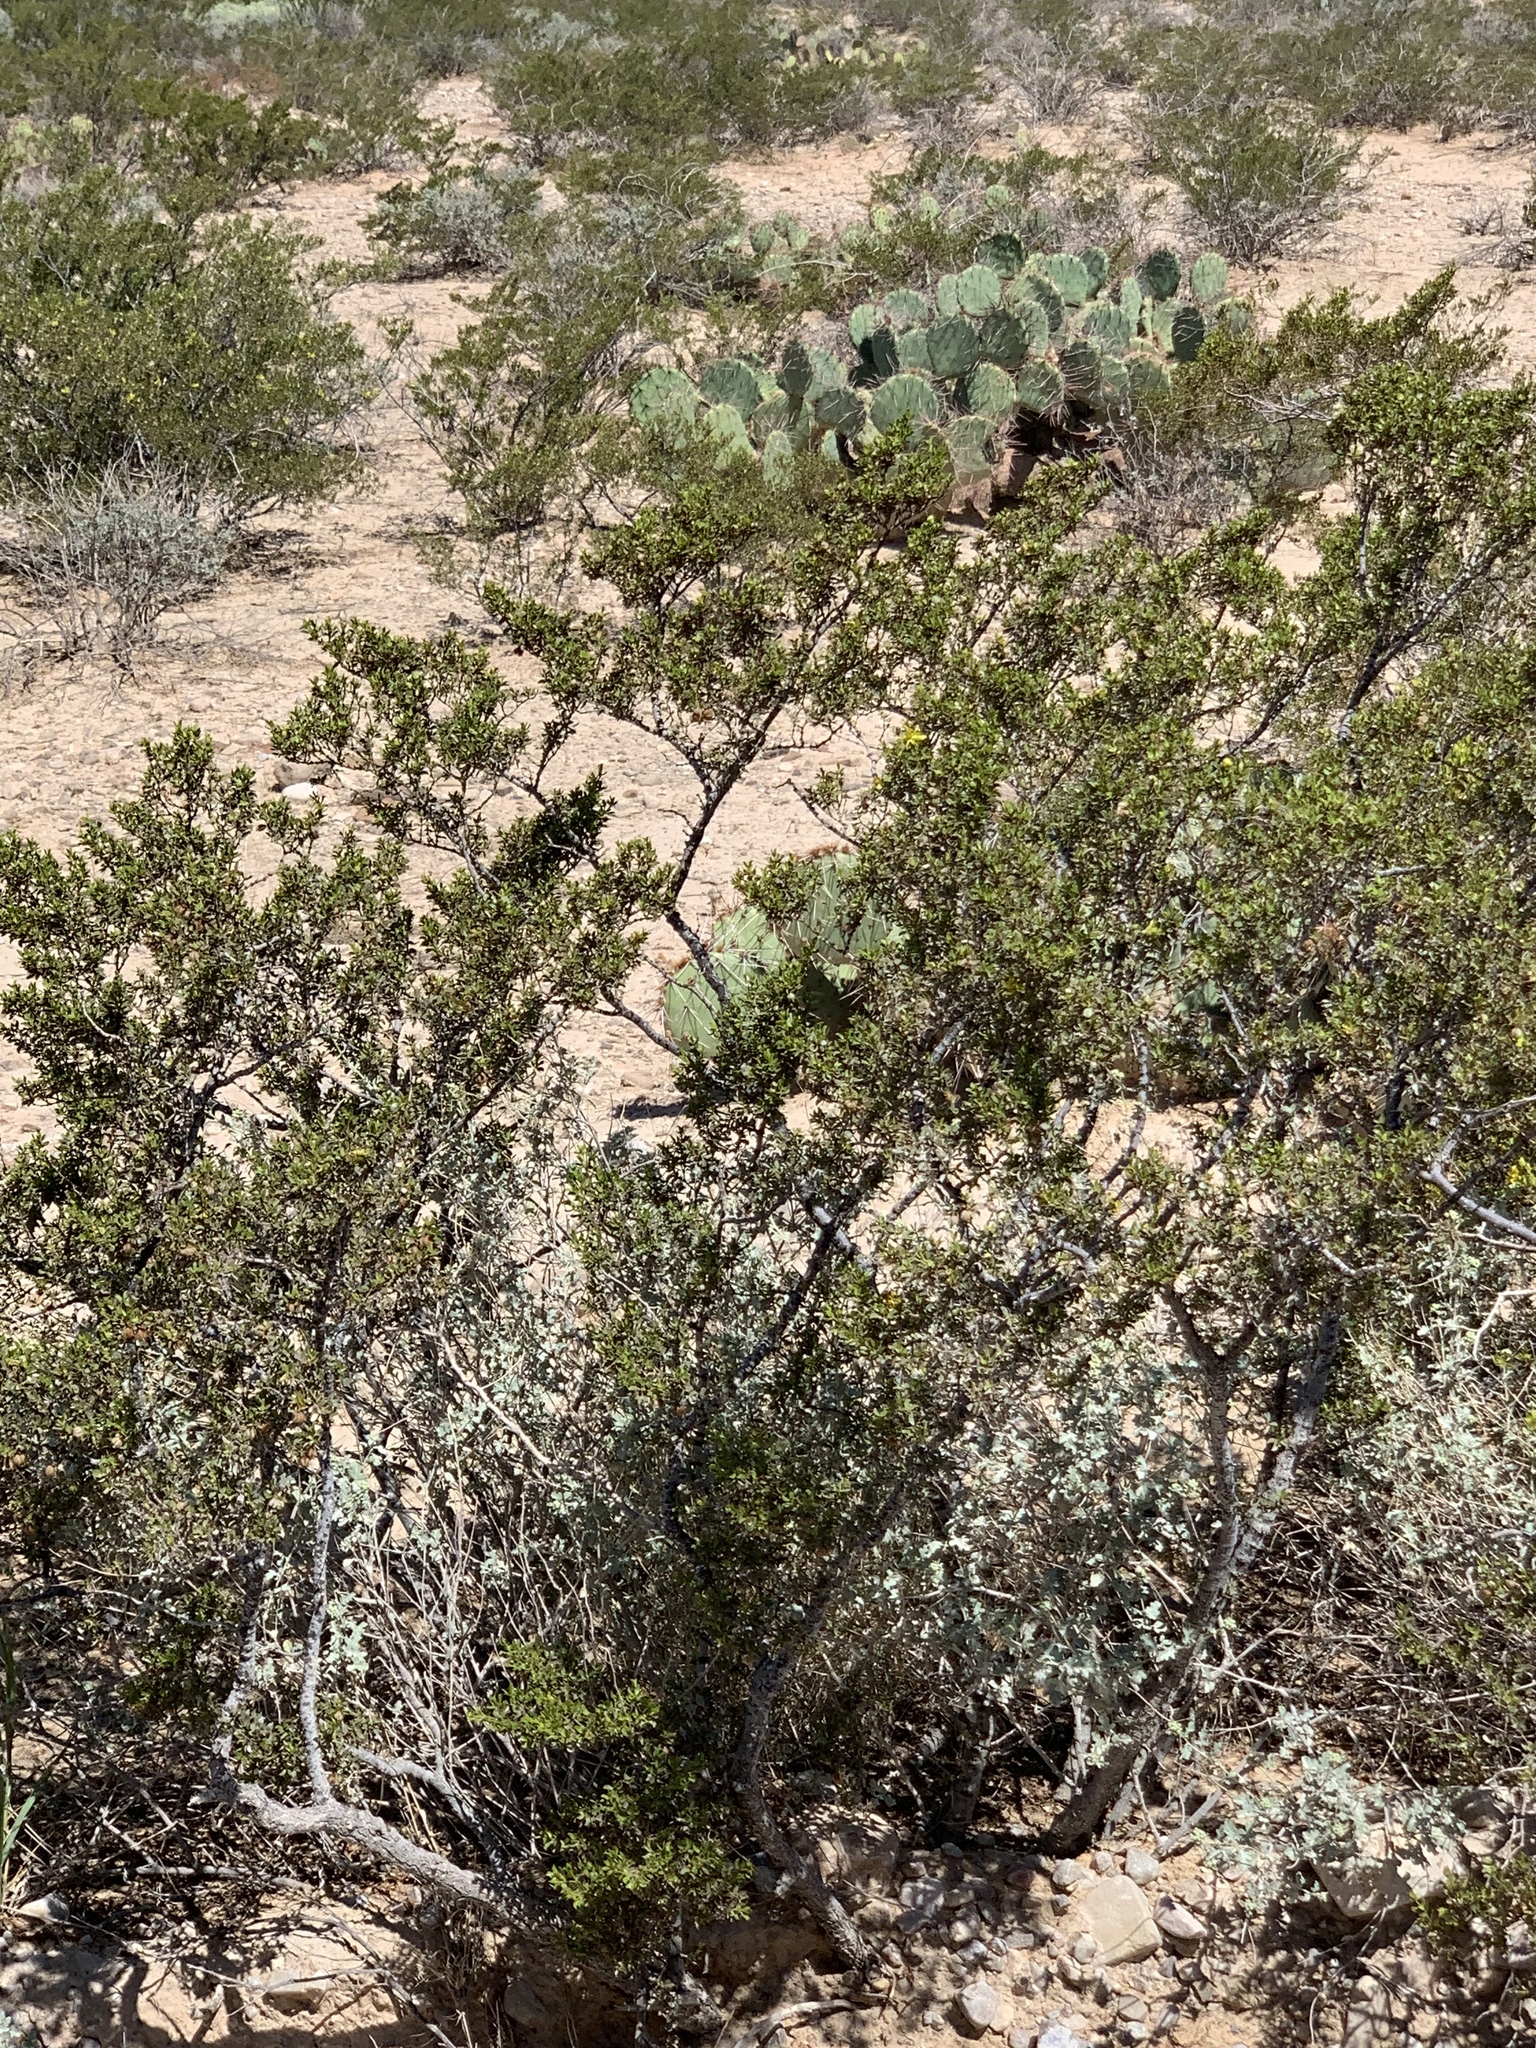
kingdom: Plantae
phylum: Tracheophyta
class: Magnoliopsida
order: Zygophyllales
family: Zygophyllaceae
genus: Larrea
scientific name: Larrea tridentata
